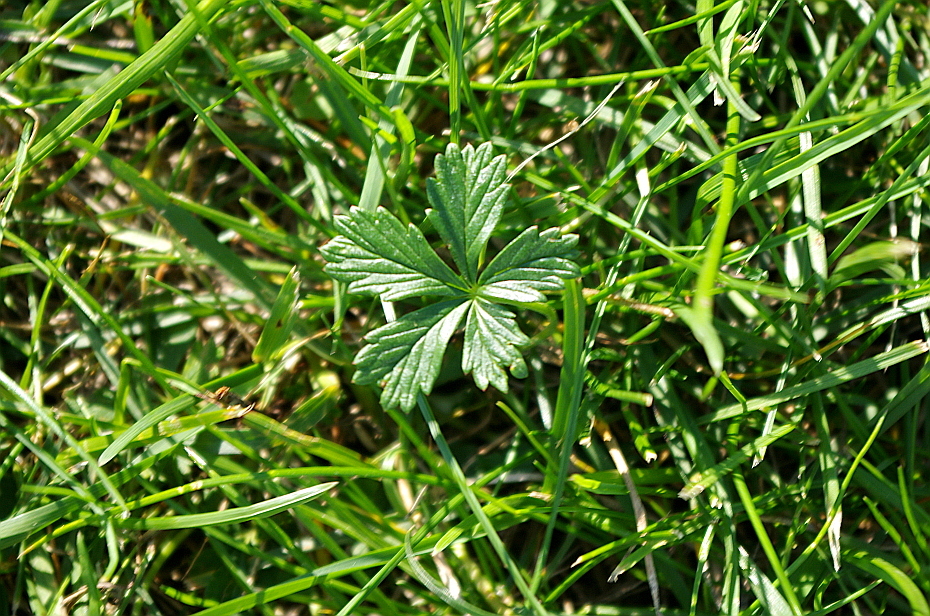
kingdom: Plantae
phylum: Tracheophyta
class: Magnoliopsida
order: Rosales
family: Rosaceae
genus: Potentilla
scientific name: Potentilla argentea
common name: Hoary cinquefoil
